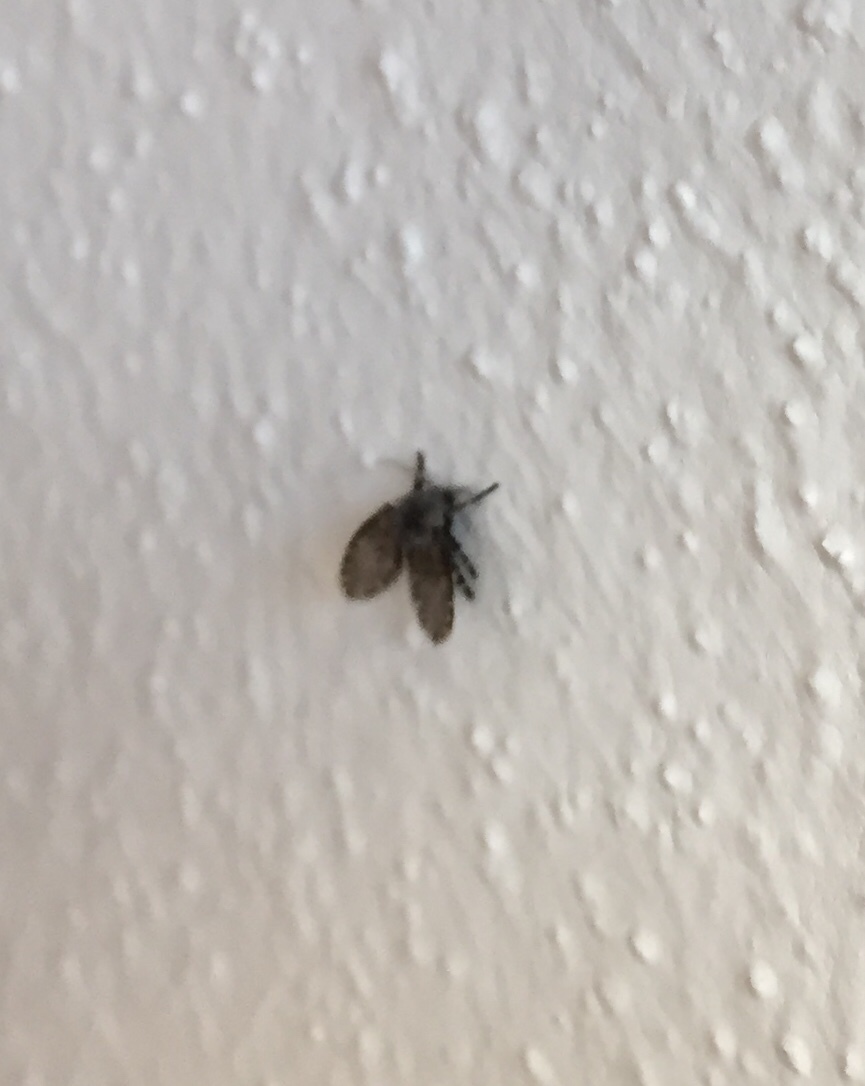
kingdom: Animalia
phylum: Arthropoda
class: Insecta
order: Diptera
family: Psychodidae
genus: Clogmia
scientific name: Clogmia albipunctatus
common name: White-spotted moth fly
